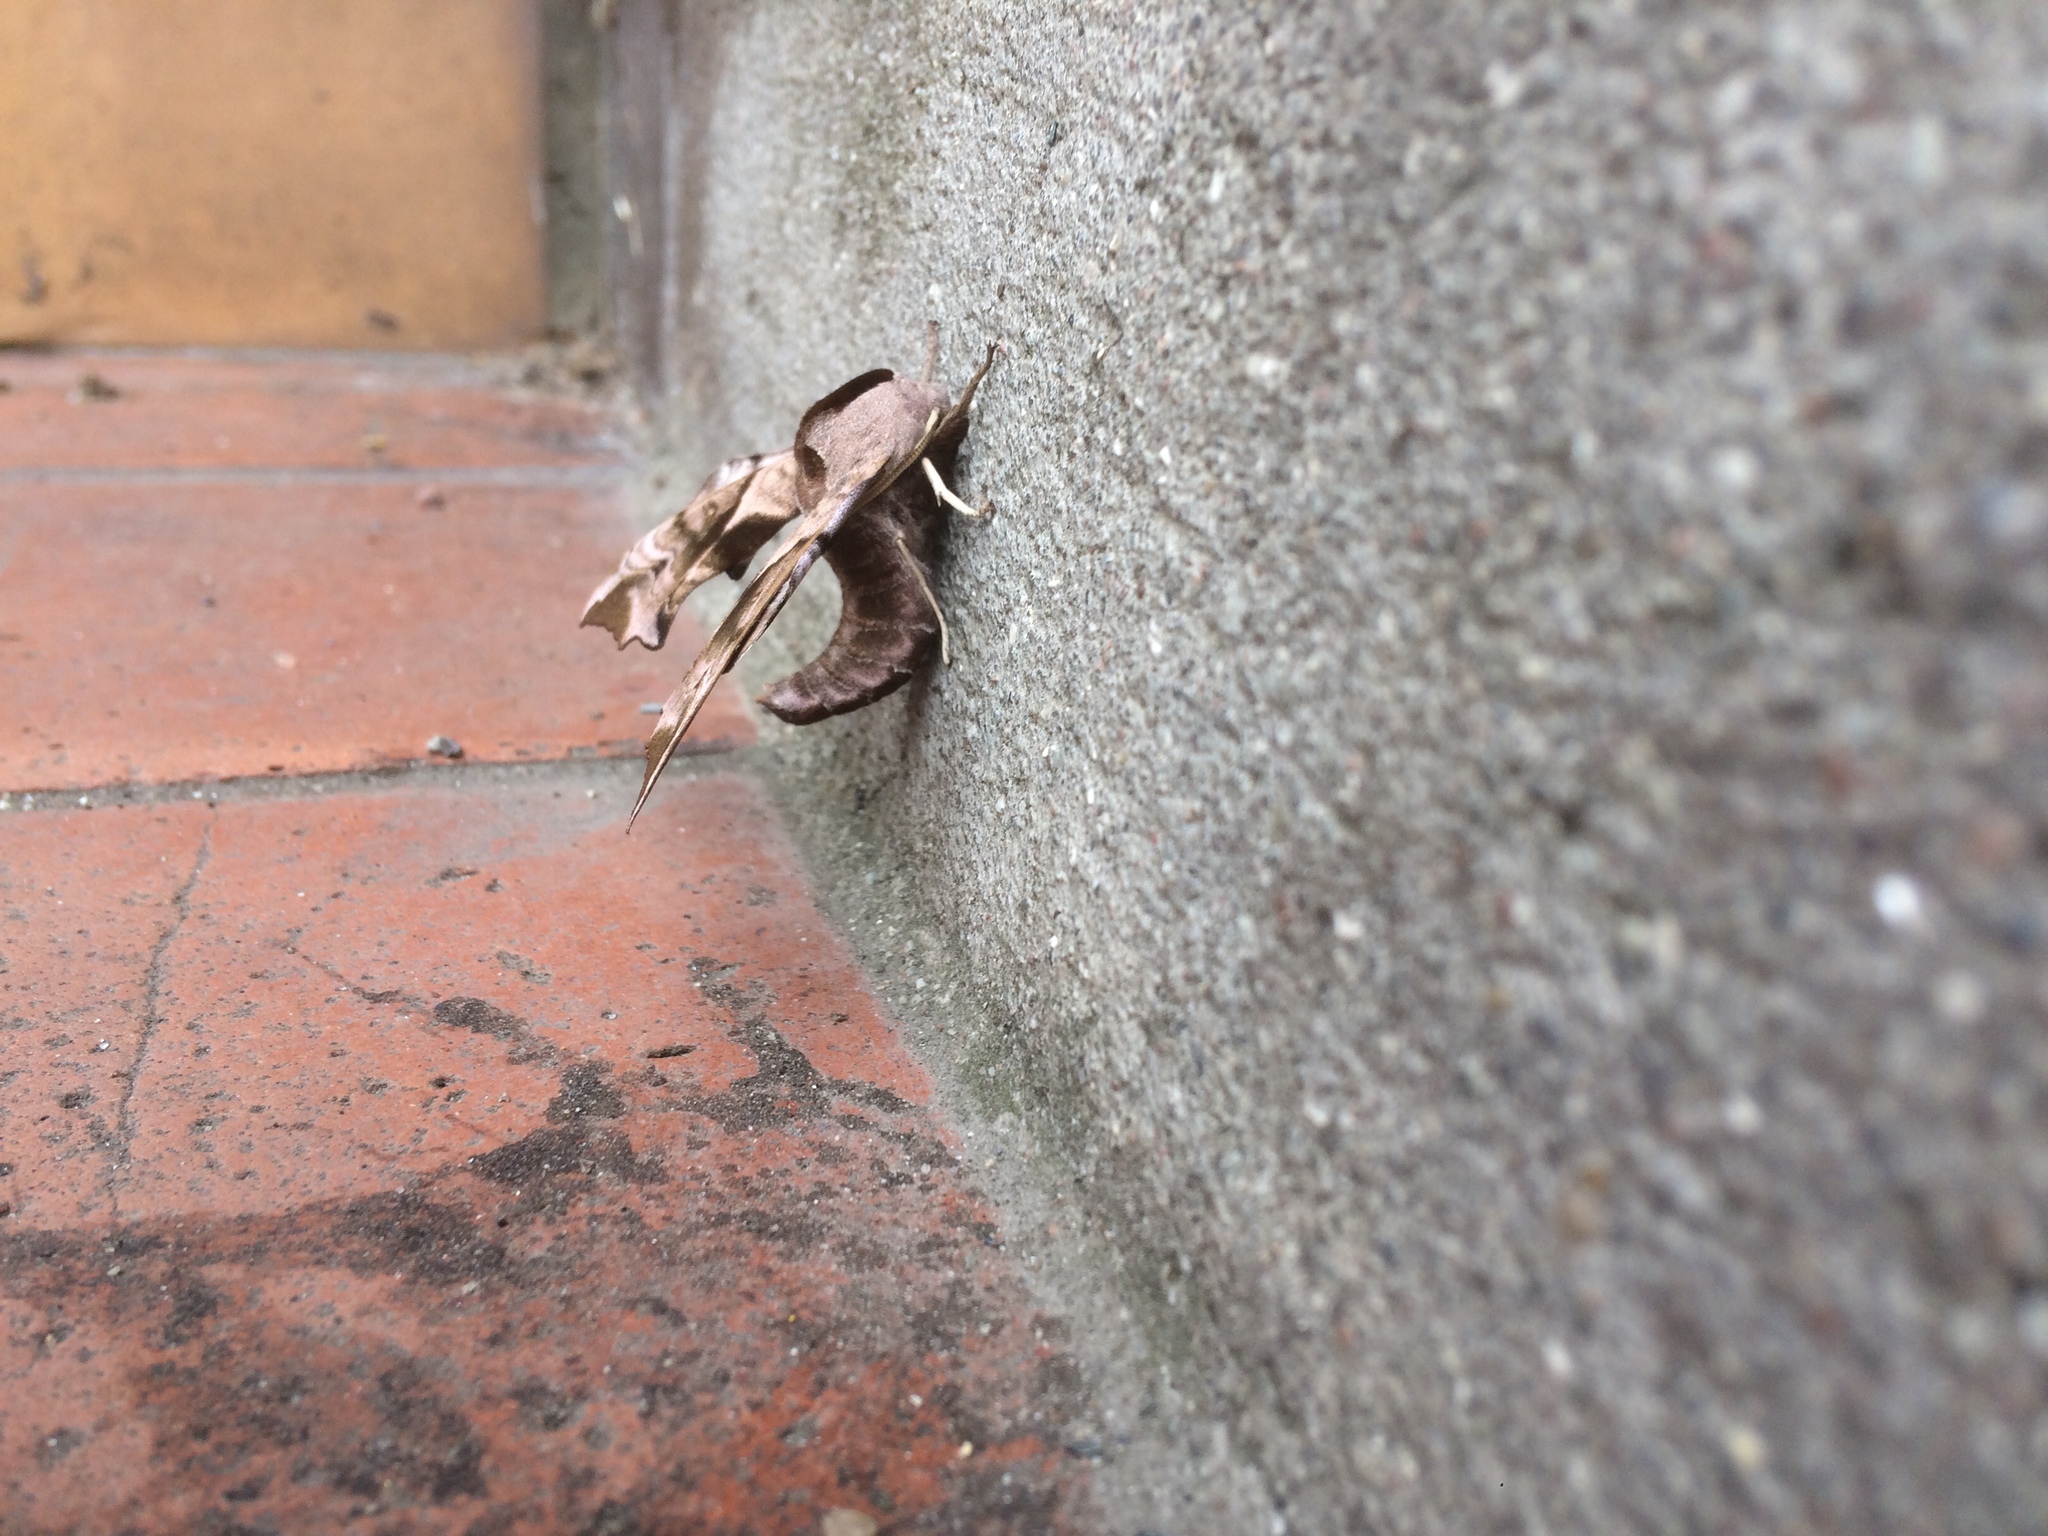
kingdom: Animalia
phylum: Arthropoda
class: Insecta
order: Lepidoptera
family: Sphingidae
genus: Smerinthus
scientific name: Smerinthus ocellata
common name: Eyed hawk-moth
